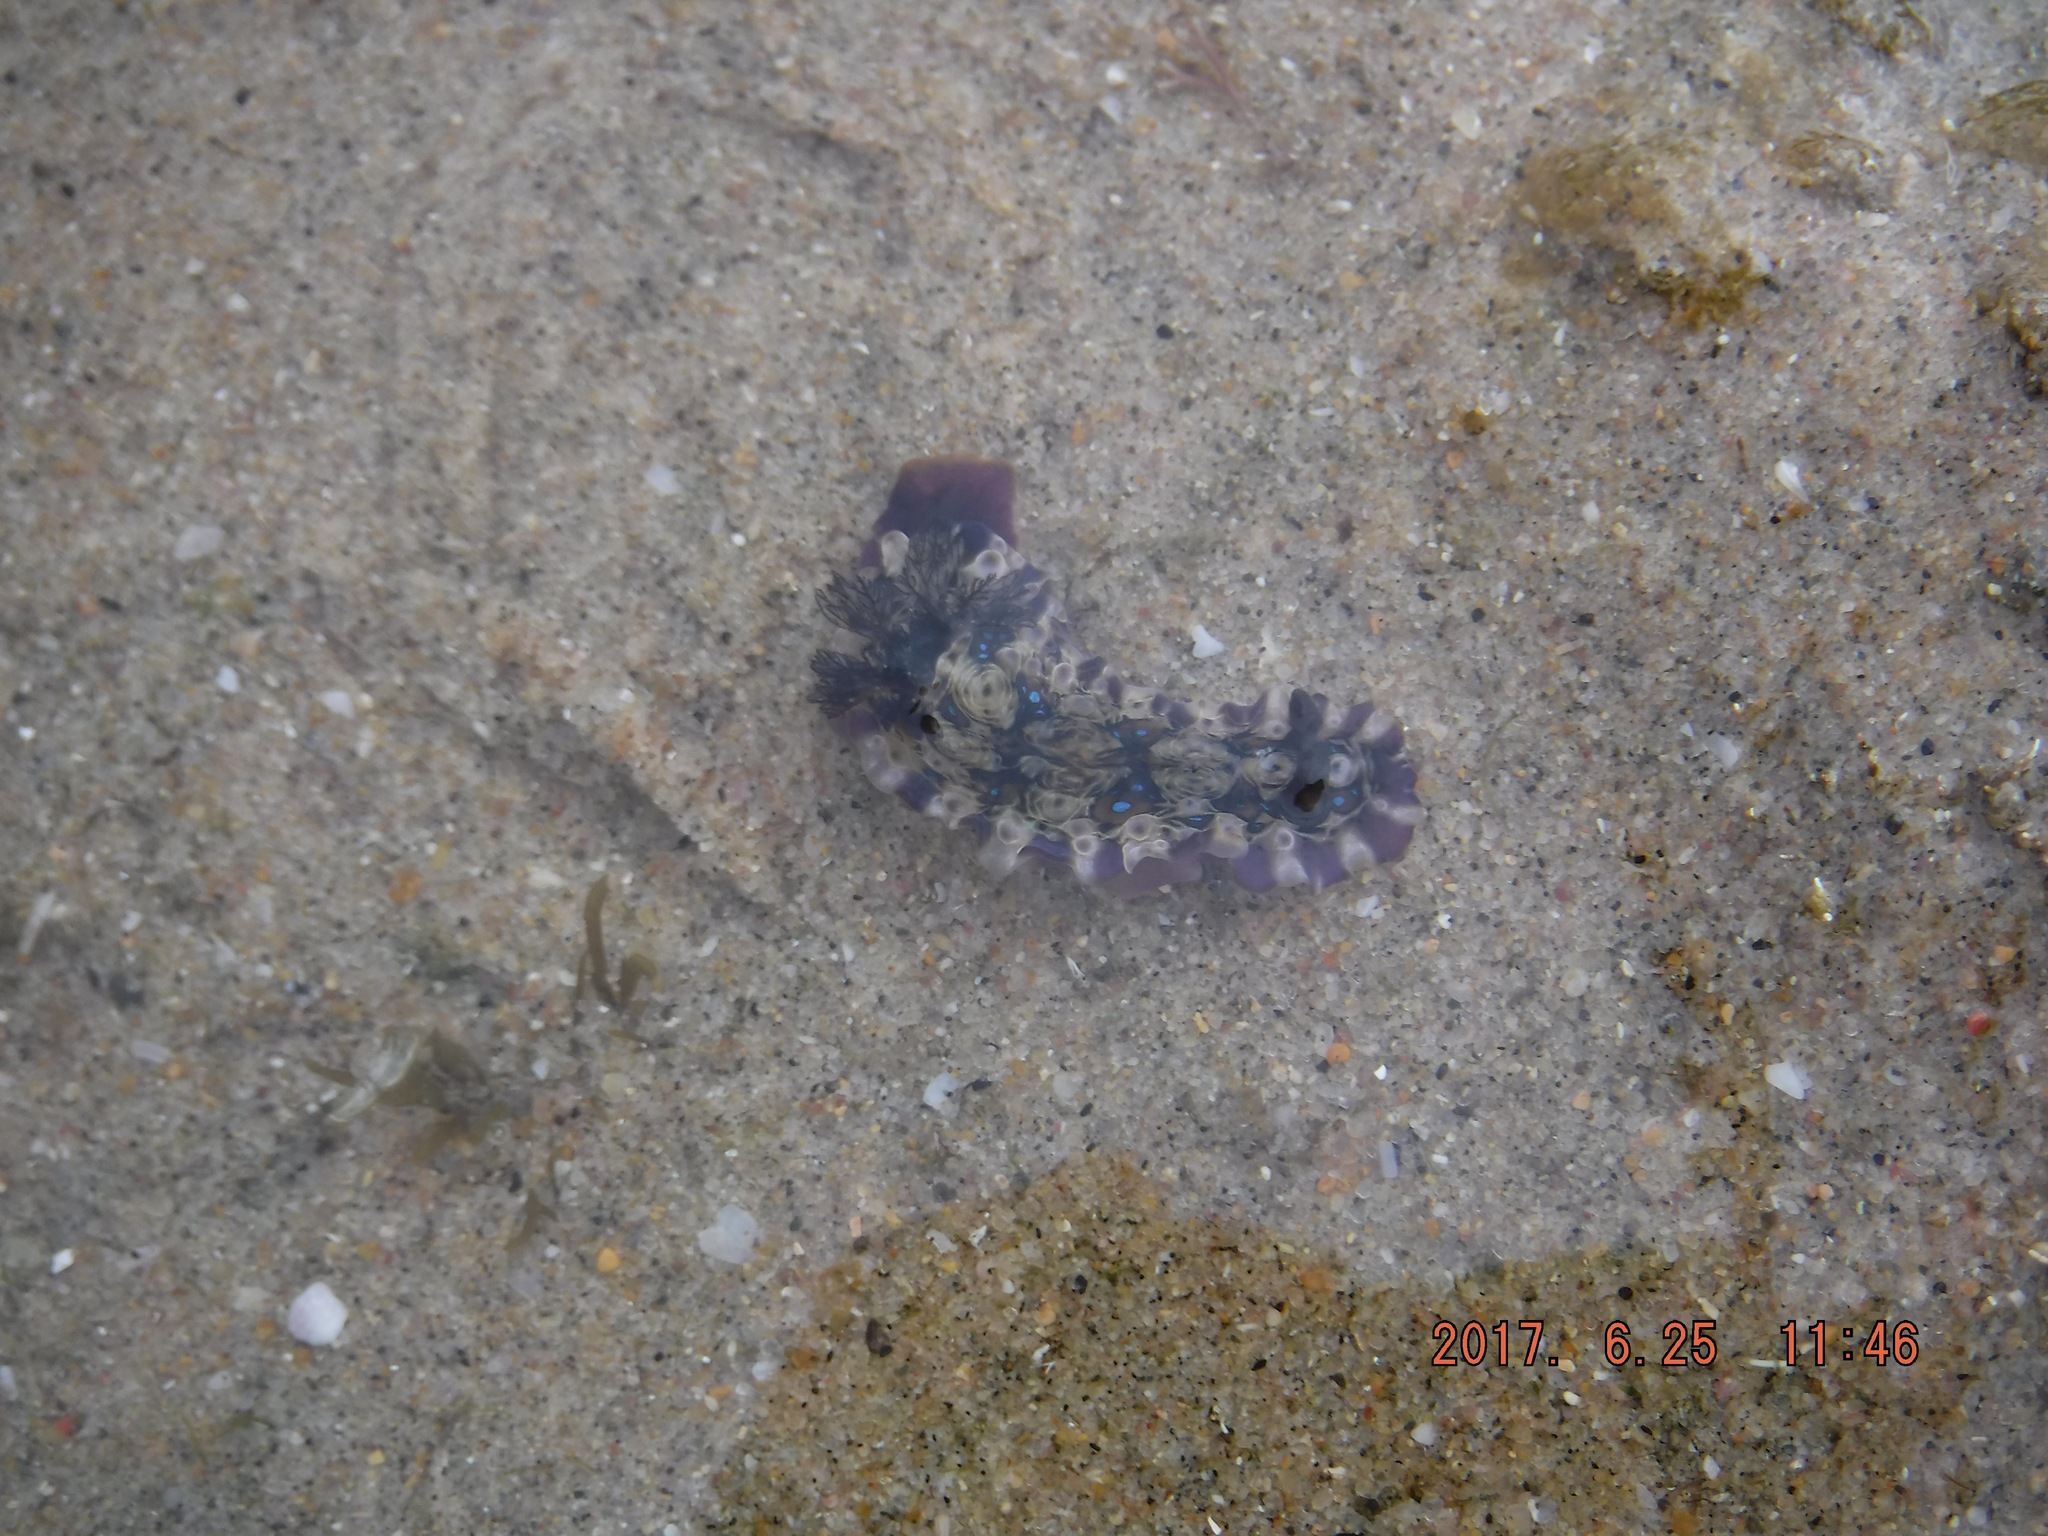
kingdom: Animalia
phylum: Mollusca
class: Gastropoda
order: Nudibranchia
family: Dendrodorididae
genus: Dendrodoris
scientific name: Dendrodoris krusensternii
